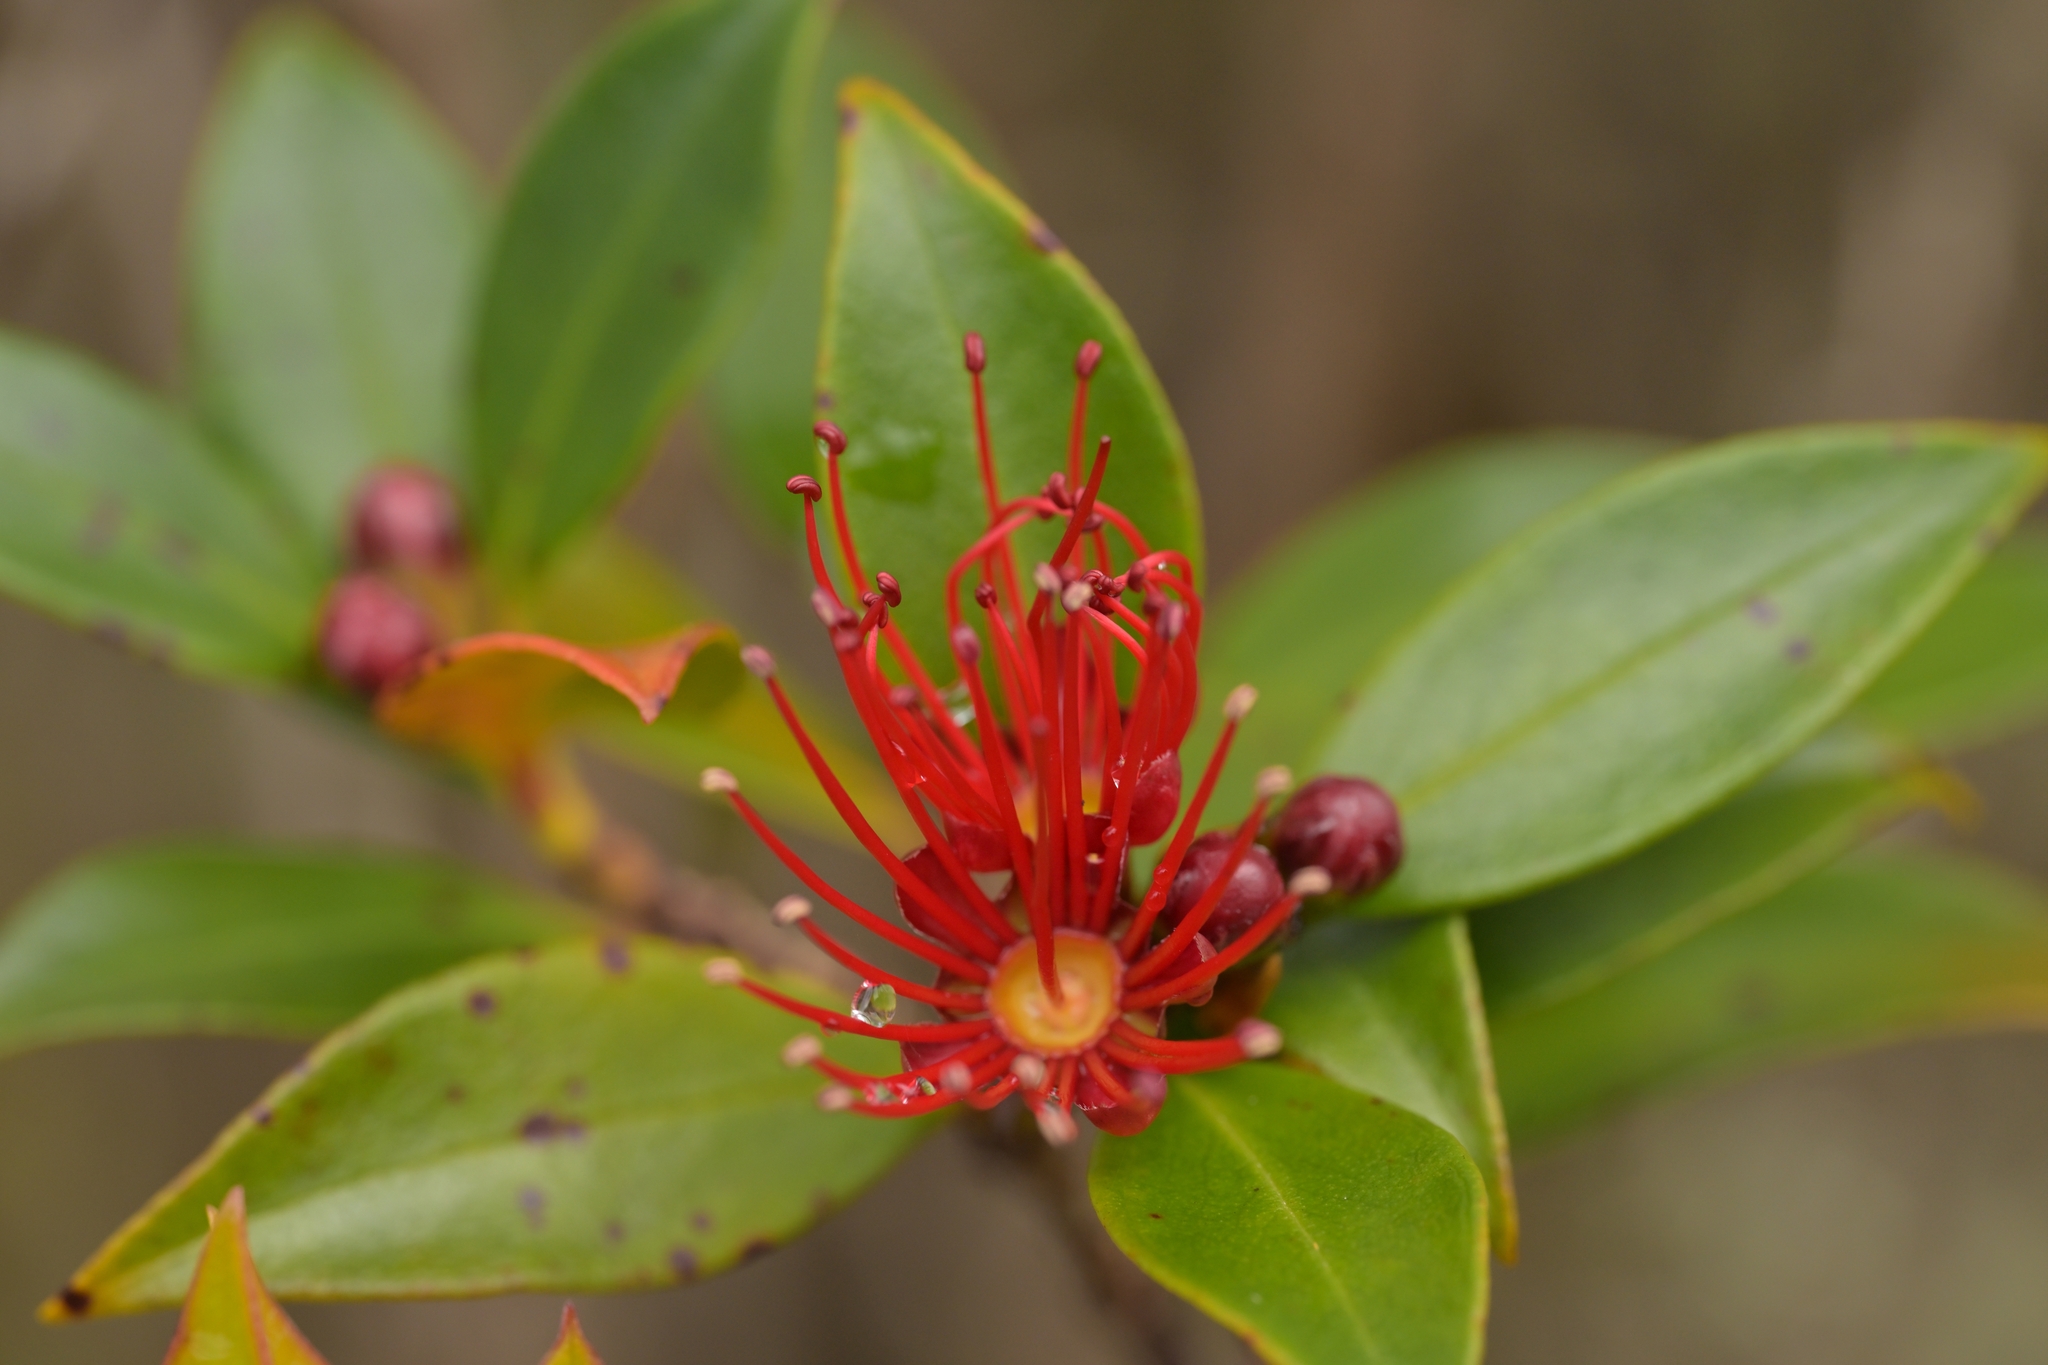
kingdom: Plantae
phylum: Tracheophyta
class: Magnoliopsida
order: Myrtales
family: Myrtaceae
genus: Metrosideros
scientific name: Metrosideros umbellata
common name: Southern rata
